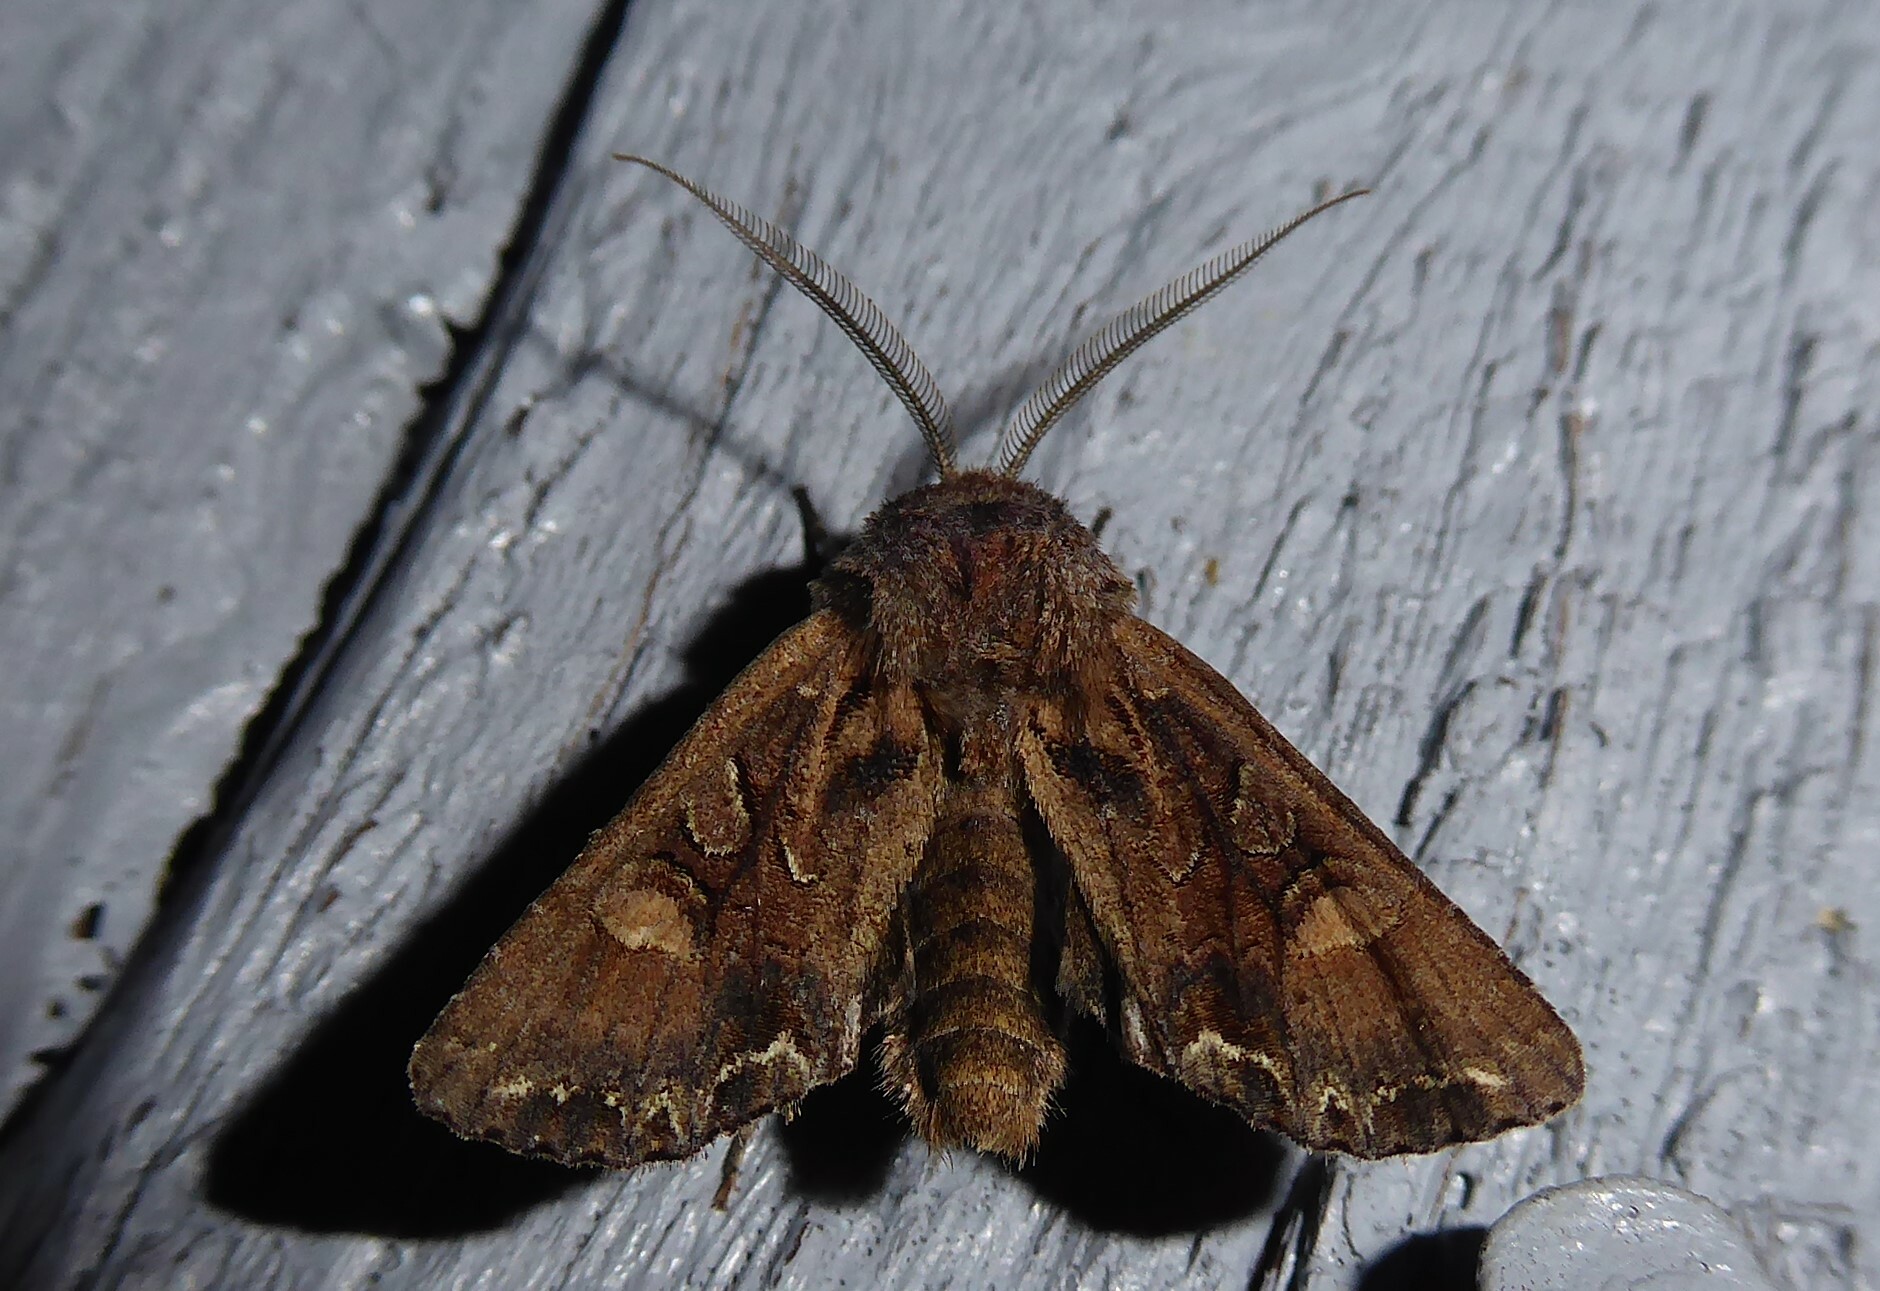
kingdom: Animalia
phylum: Arthropoda
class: Insecta
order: Lepidoptera
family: Noctuidae
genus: Ichneutica
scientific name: Ichneutica skelloni
